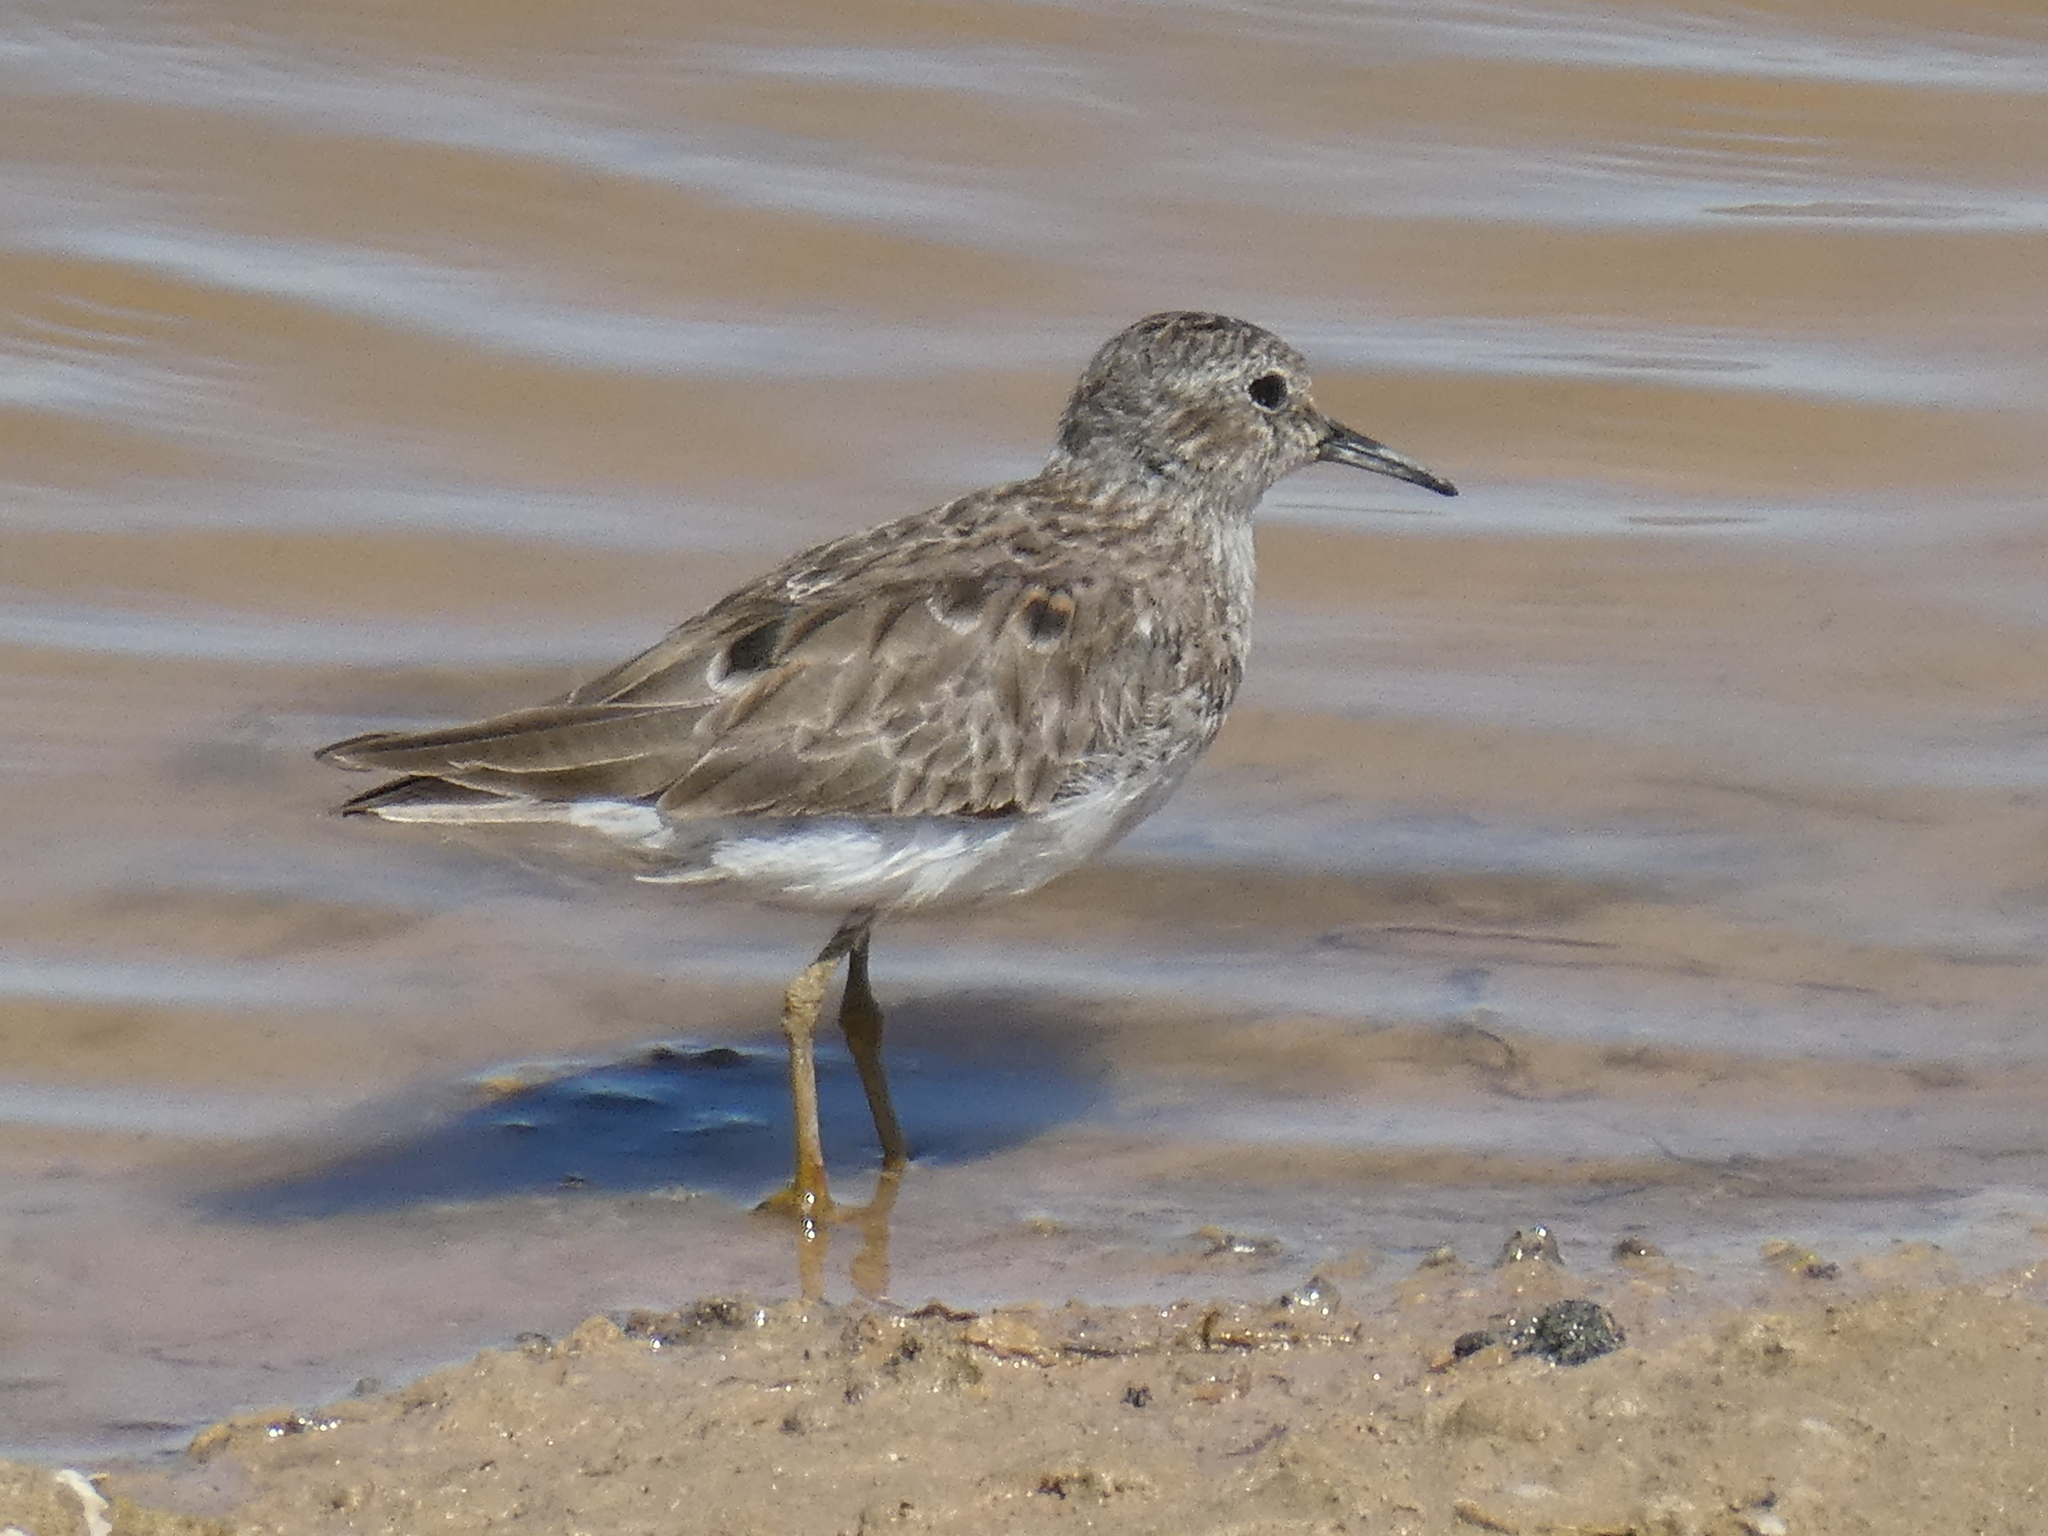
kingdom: Animalia
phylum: Chordata
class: Aves
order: Charadriiformes
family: Scolopacidae
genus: Calidris
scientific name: Calidris minutilla
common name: Least sandpiper
